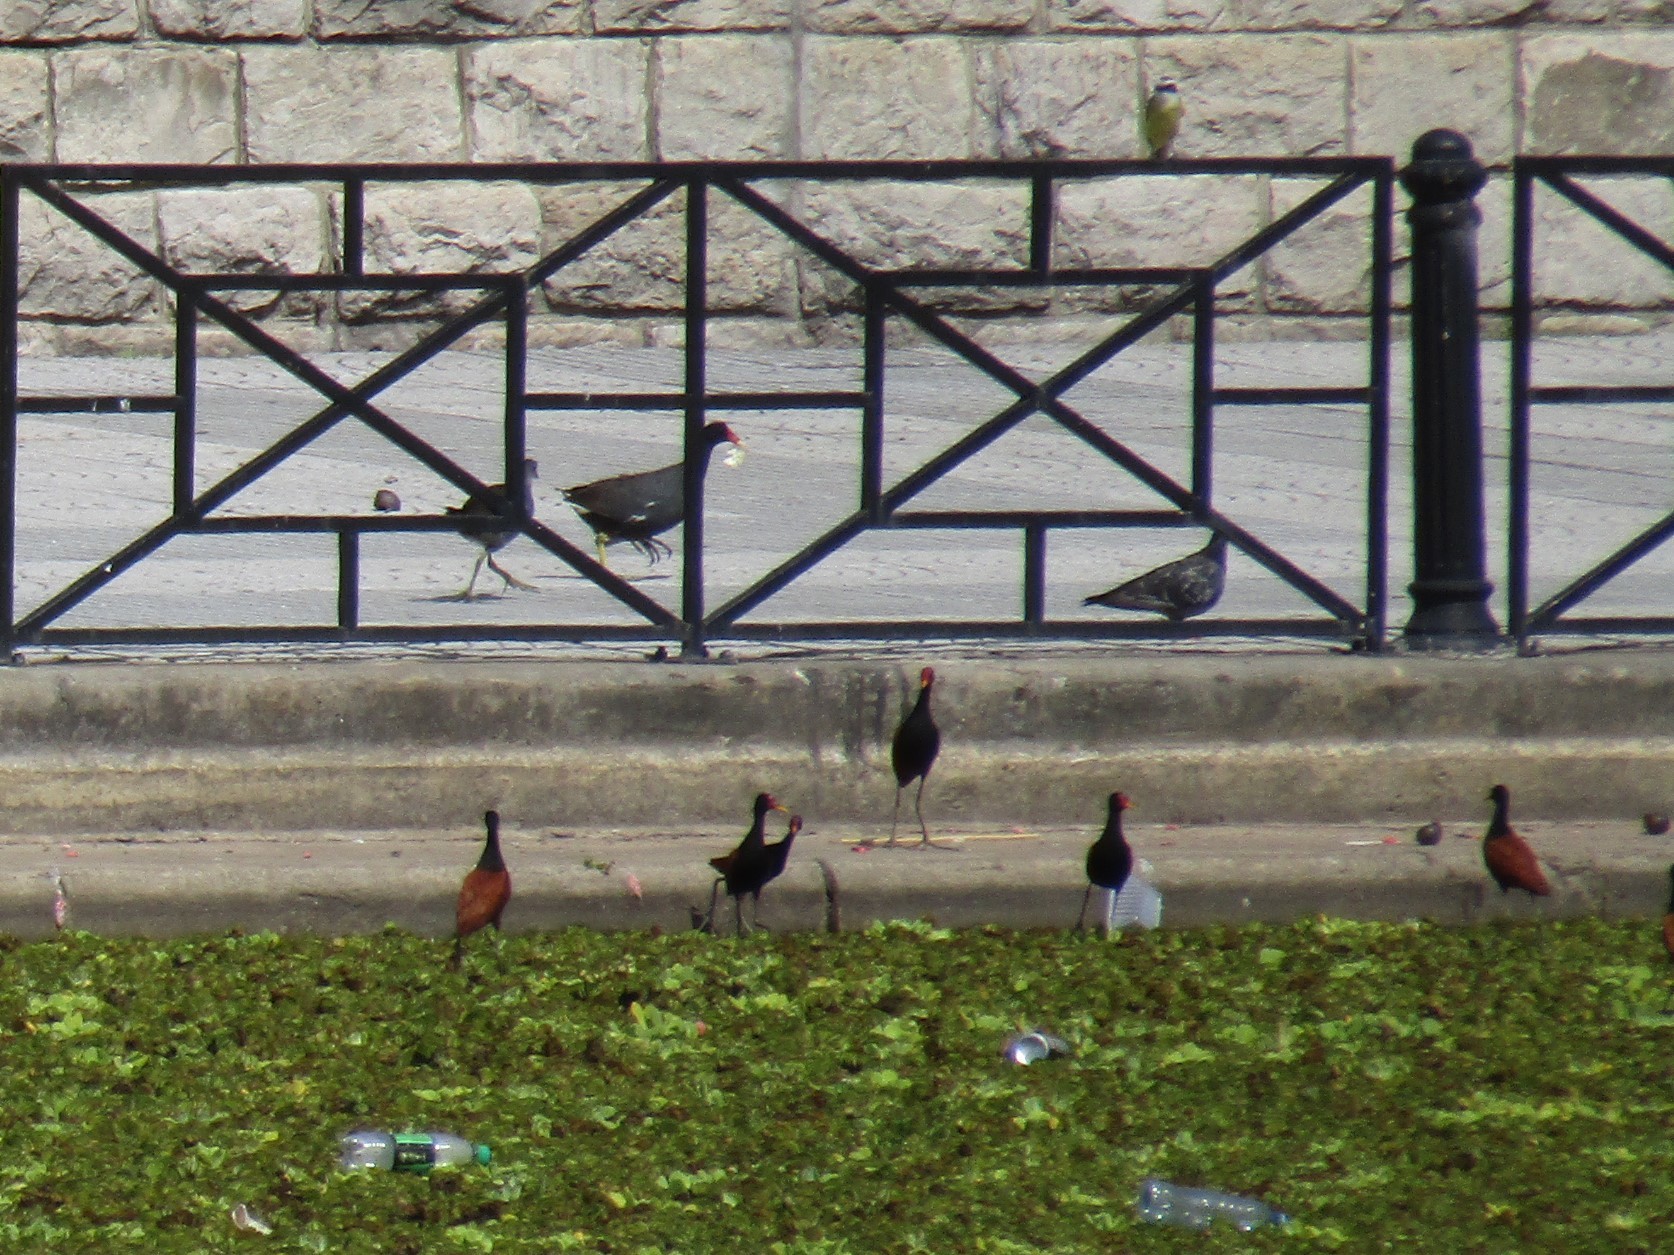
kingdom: Animalia
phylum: Chordata
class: Aves
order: Charadriiformes
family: Jacanidae
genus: Jacana
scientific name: Jacana jacana
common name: Wattled jacana
